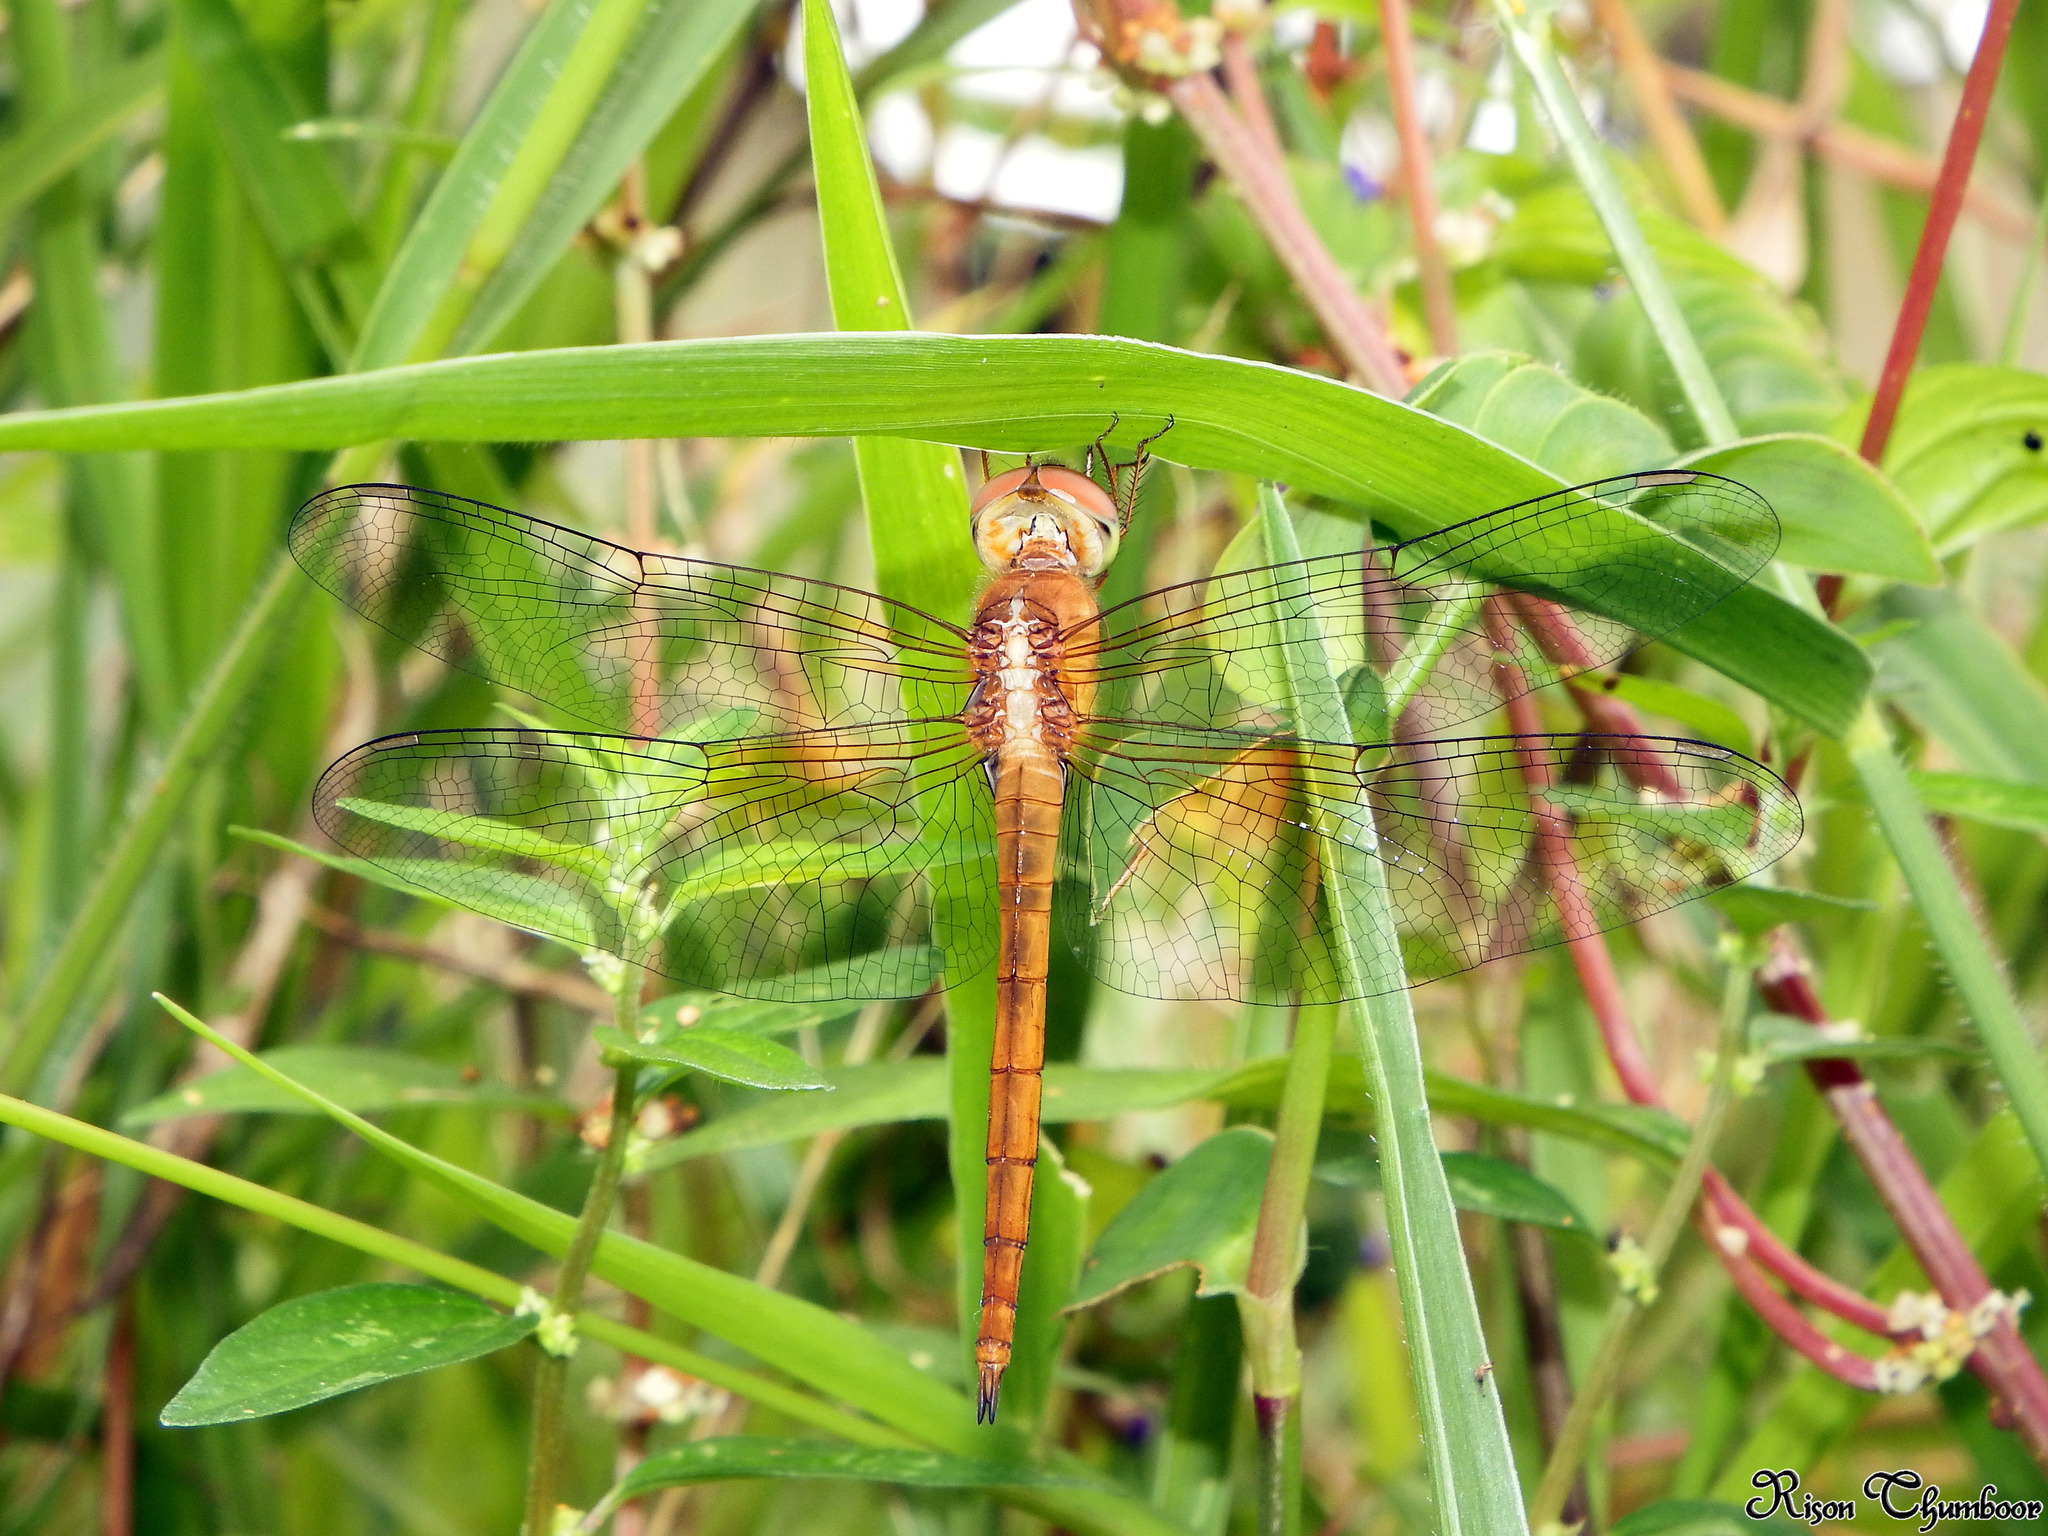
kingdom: Animalia
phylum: Arthropoda
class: Insecta
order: Odonata
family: Libellulidae
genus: Tholymis
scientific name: Tholymis tillarga
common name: Coral-tailed cloud wing
